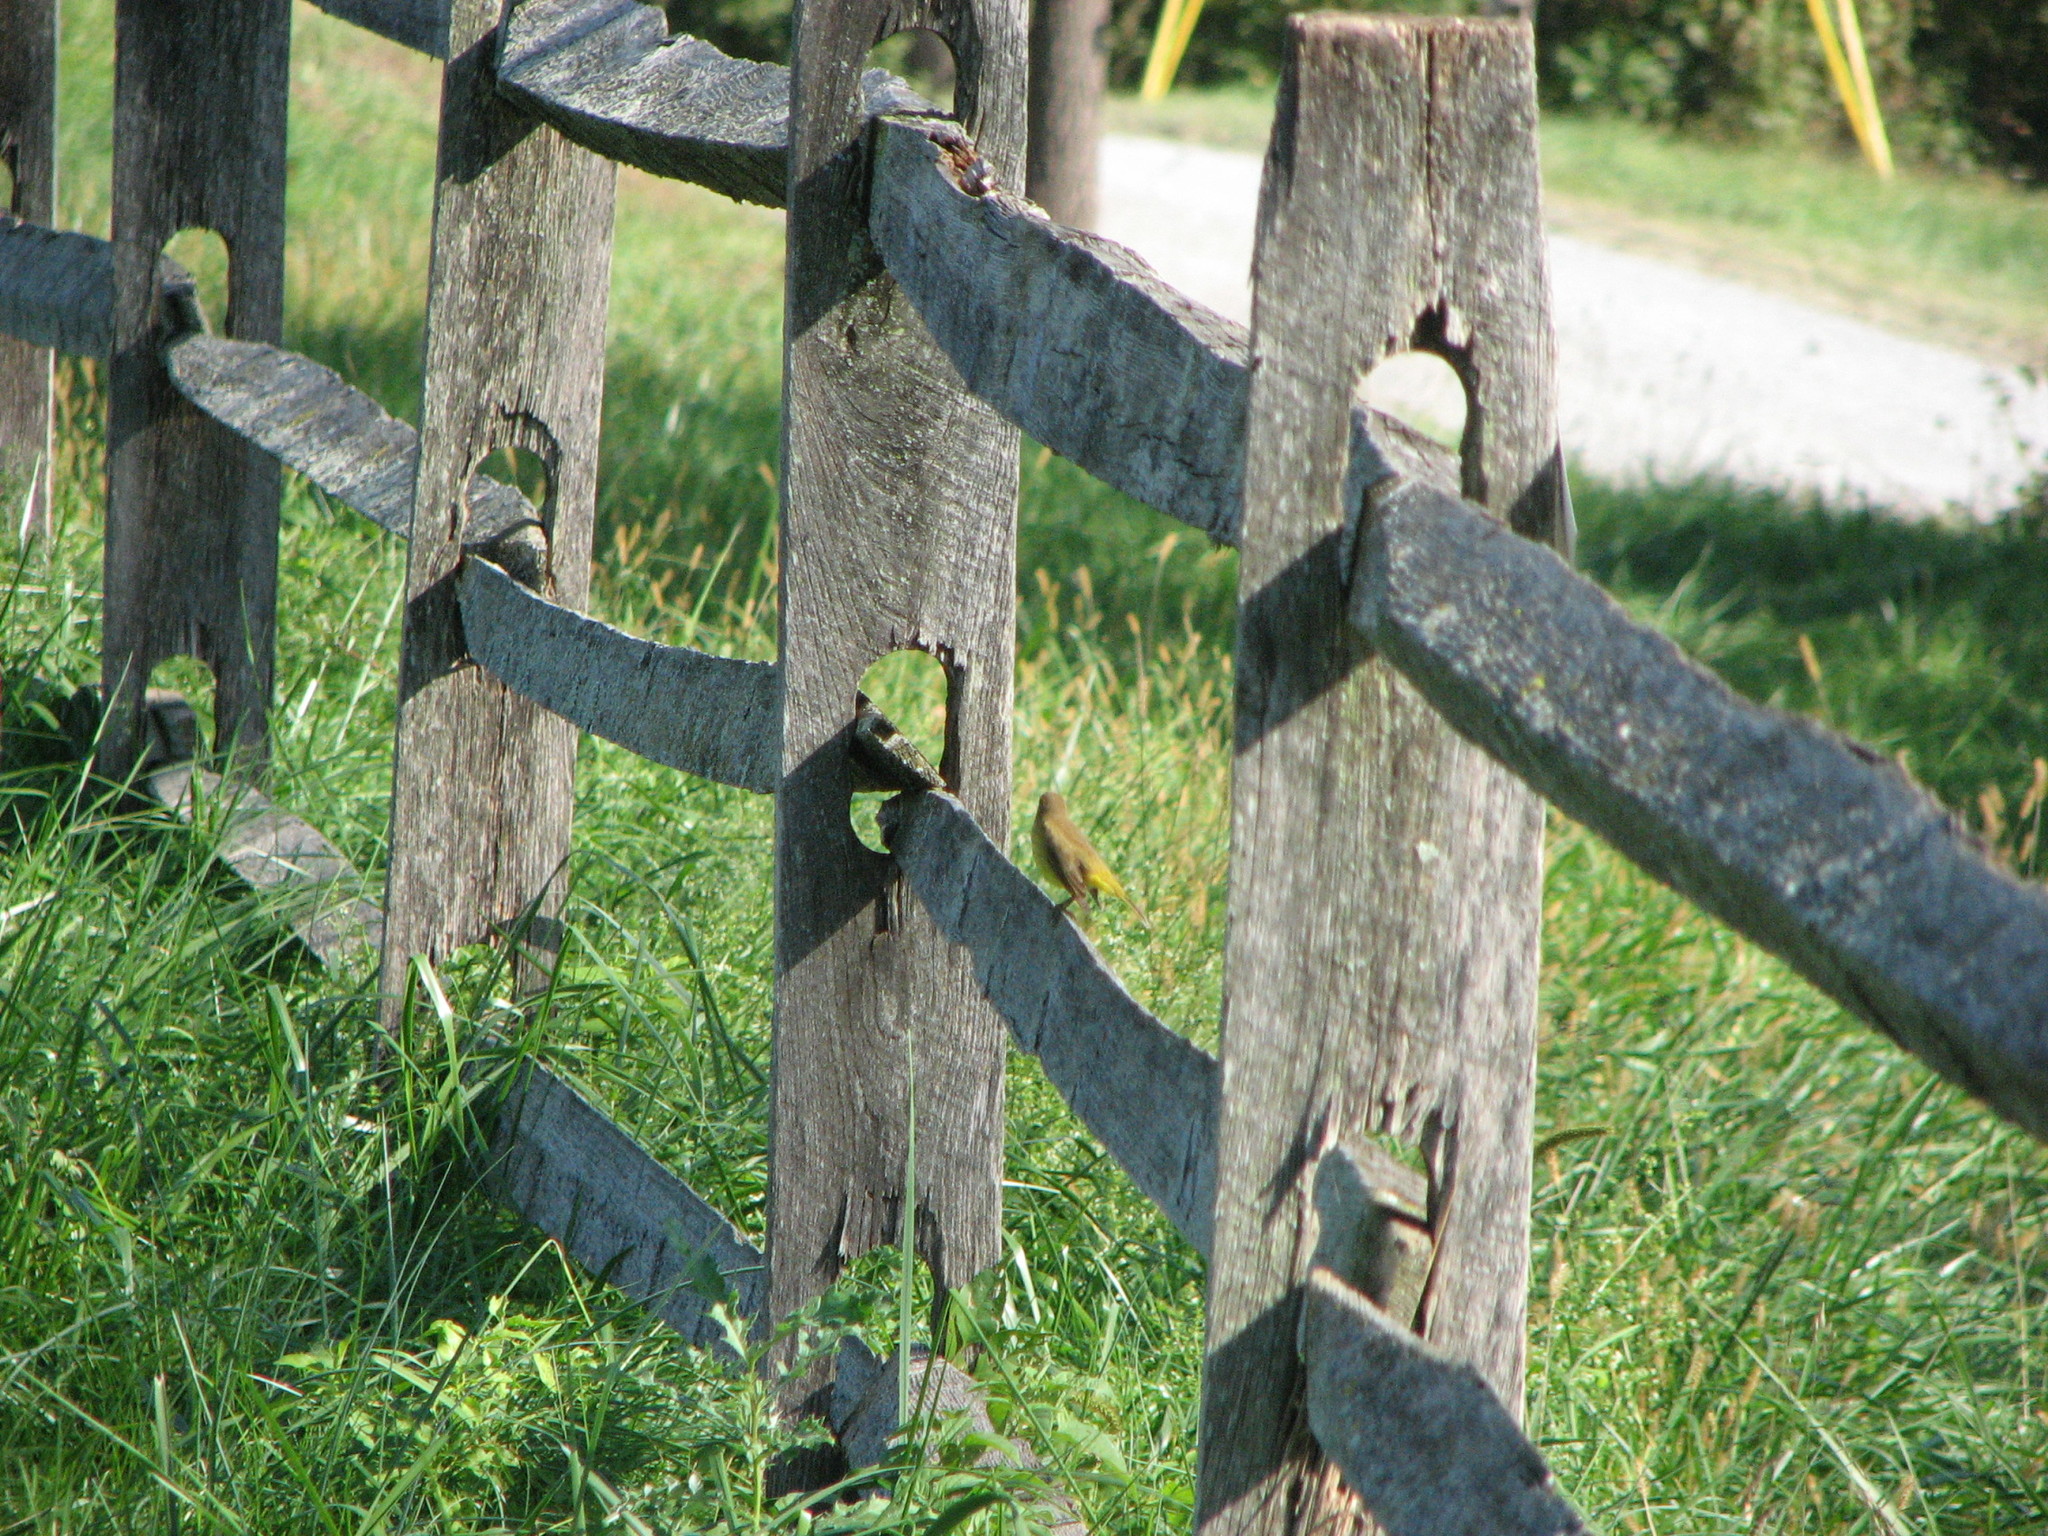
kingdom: Animalia
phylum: Chordata
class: Aves
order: Passeriformes
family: Parulidae
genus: Setophaga
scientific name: Setophaga palmarum
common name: Palm warbler
